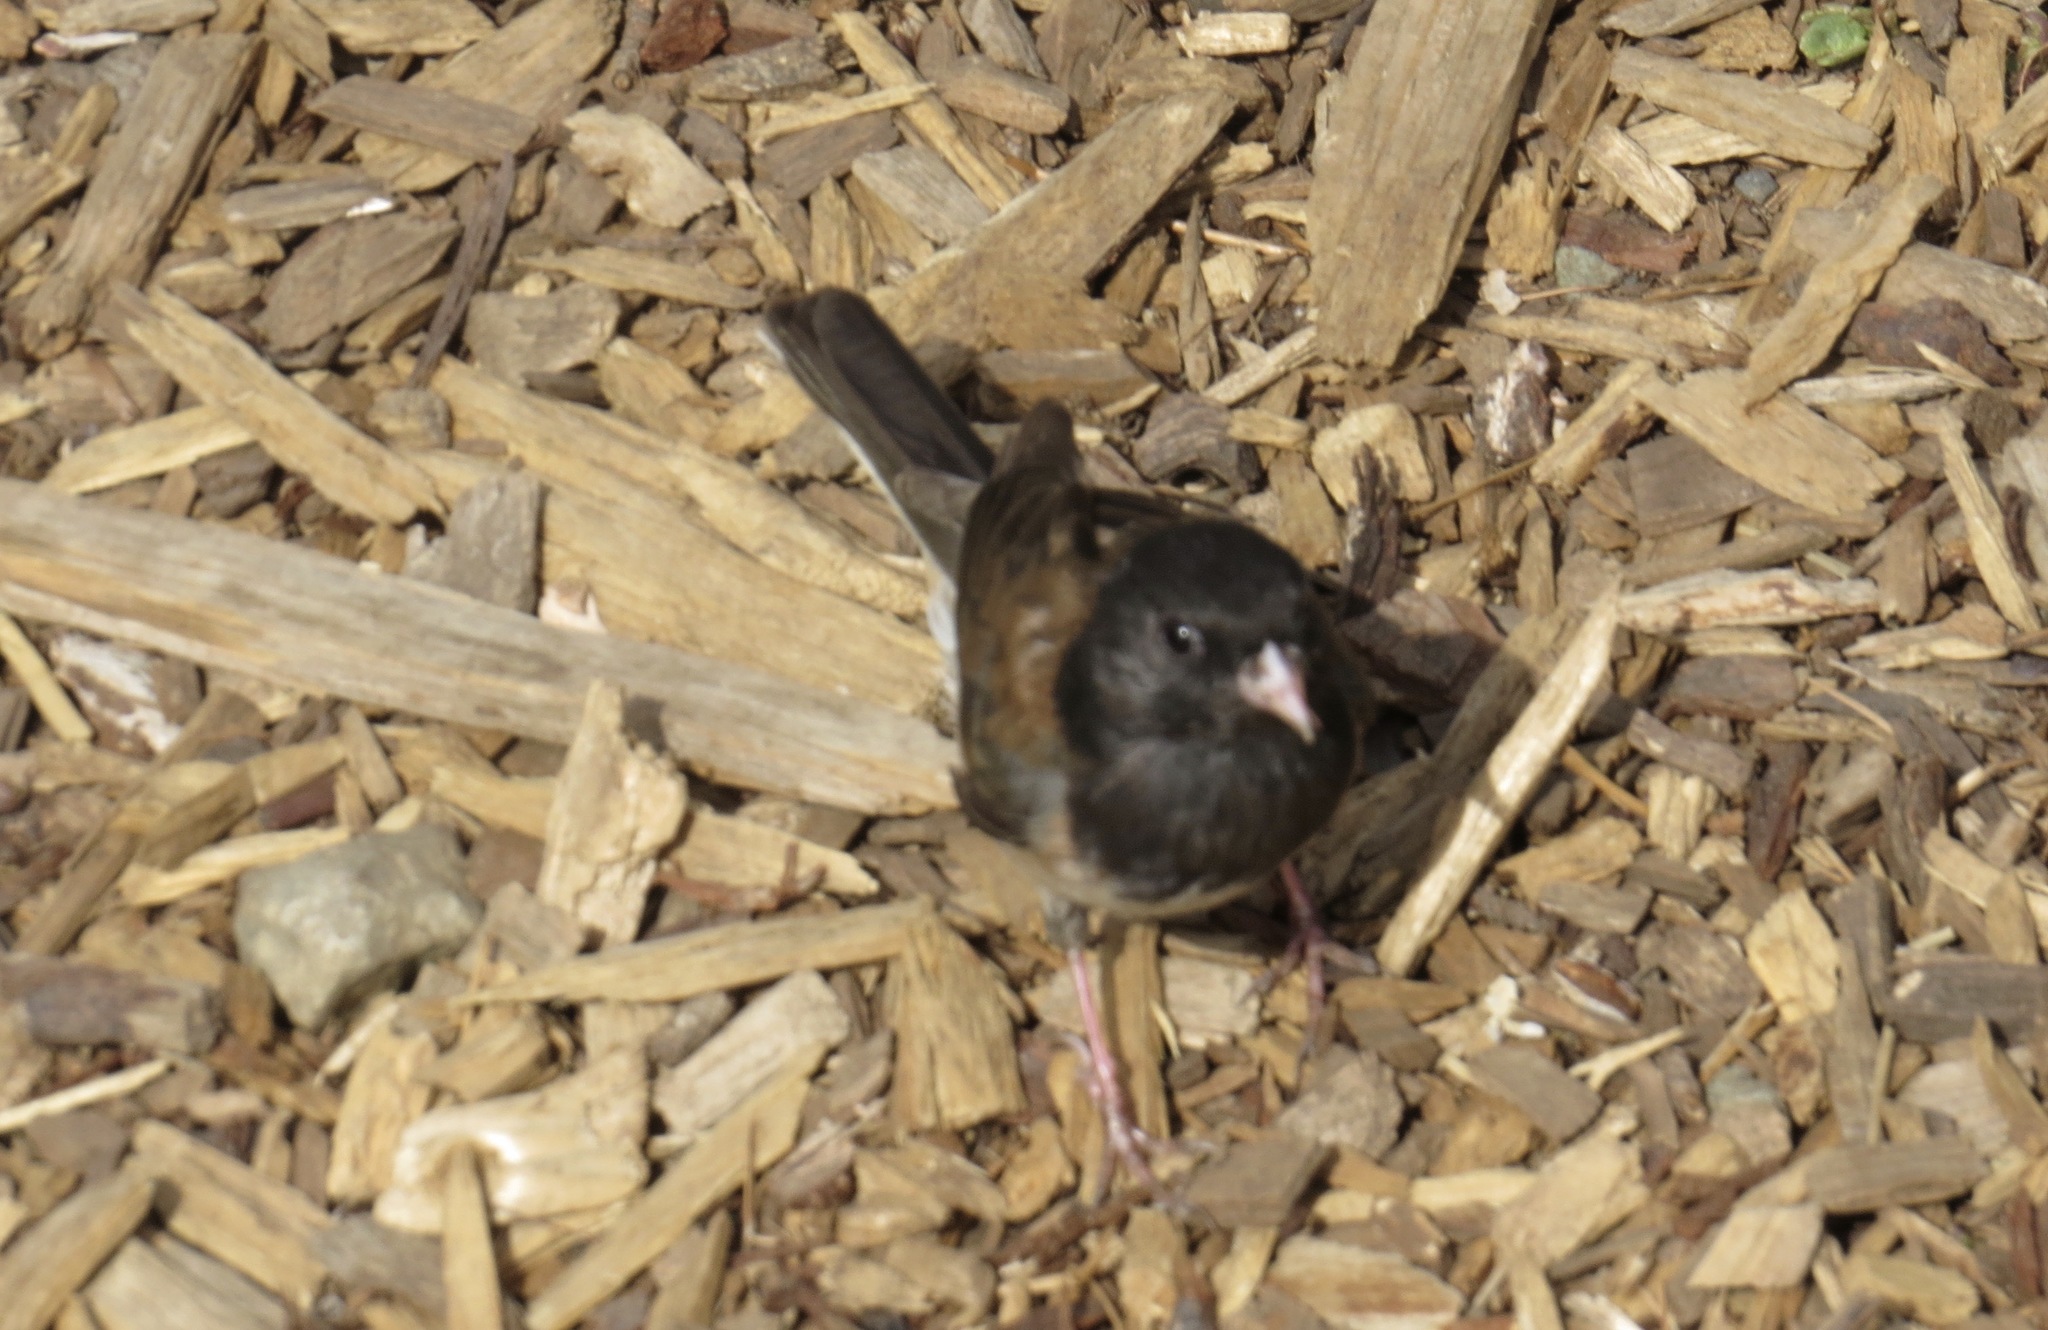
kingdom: Animalia
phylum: Chordata
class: Aves
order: Passeriformes
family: Passerellidae
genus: Junco
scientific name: Junco hyemalis
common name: Dark-eyed junco
